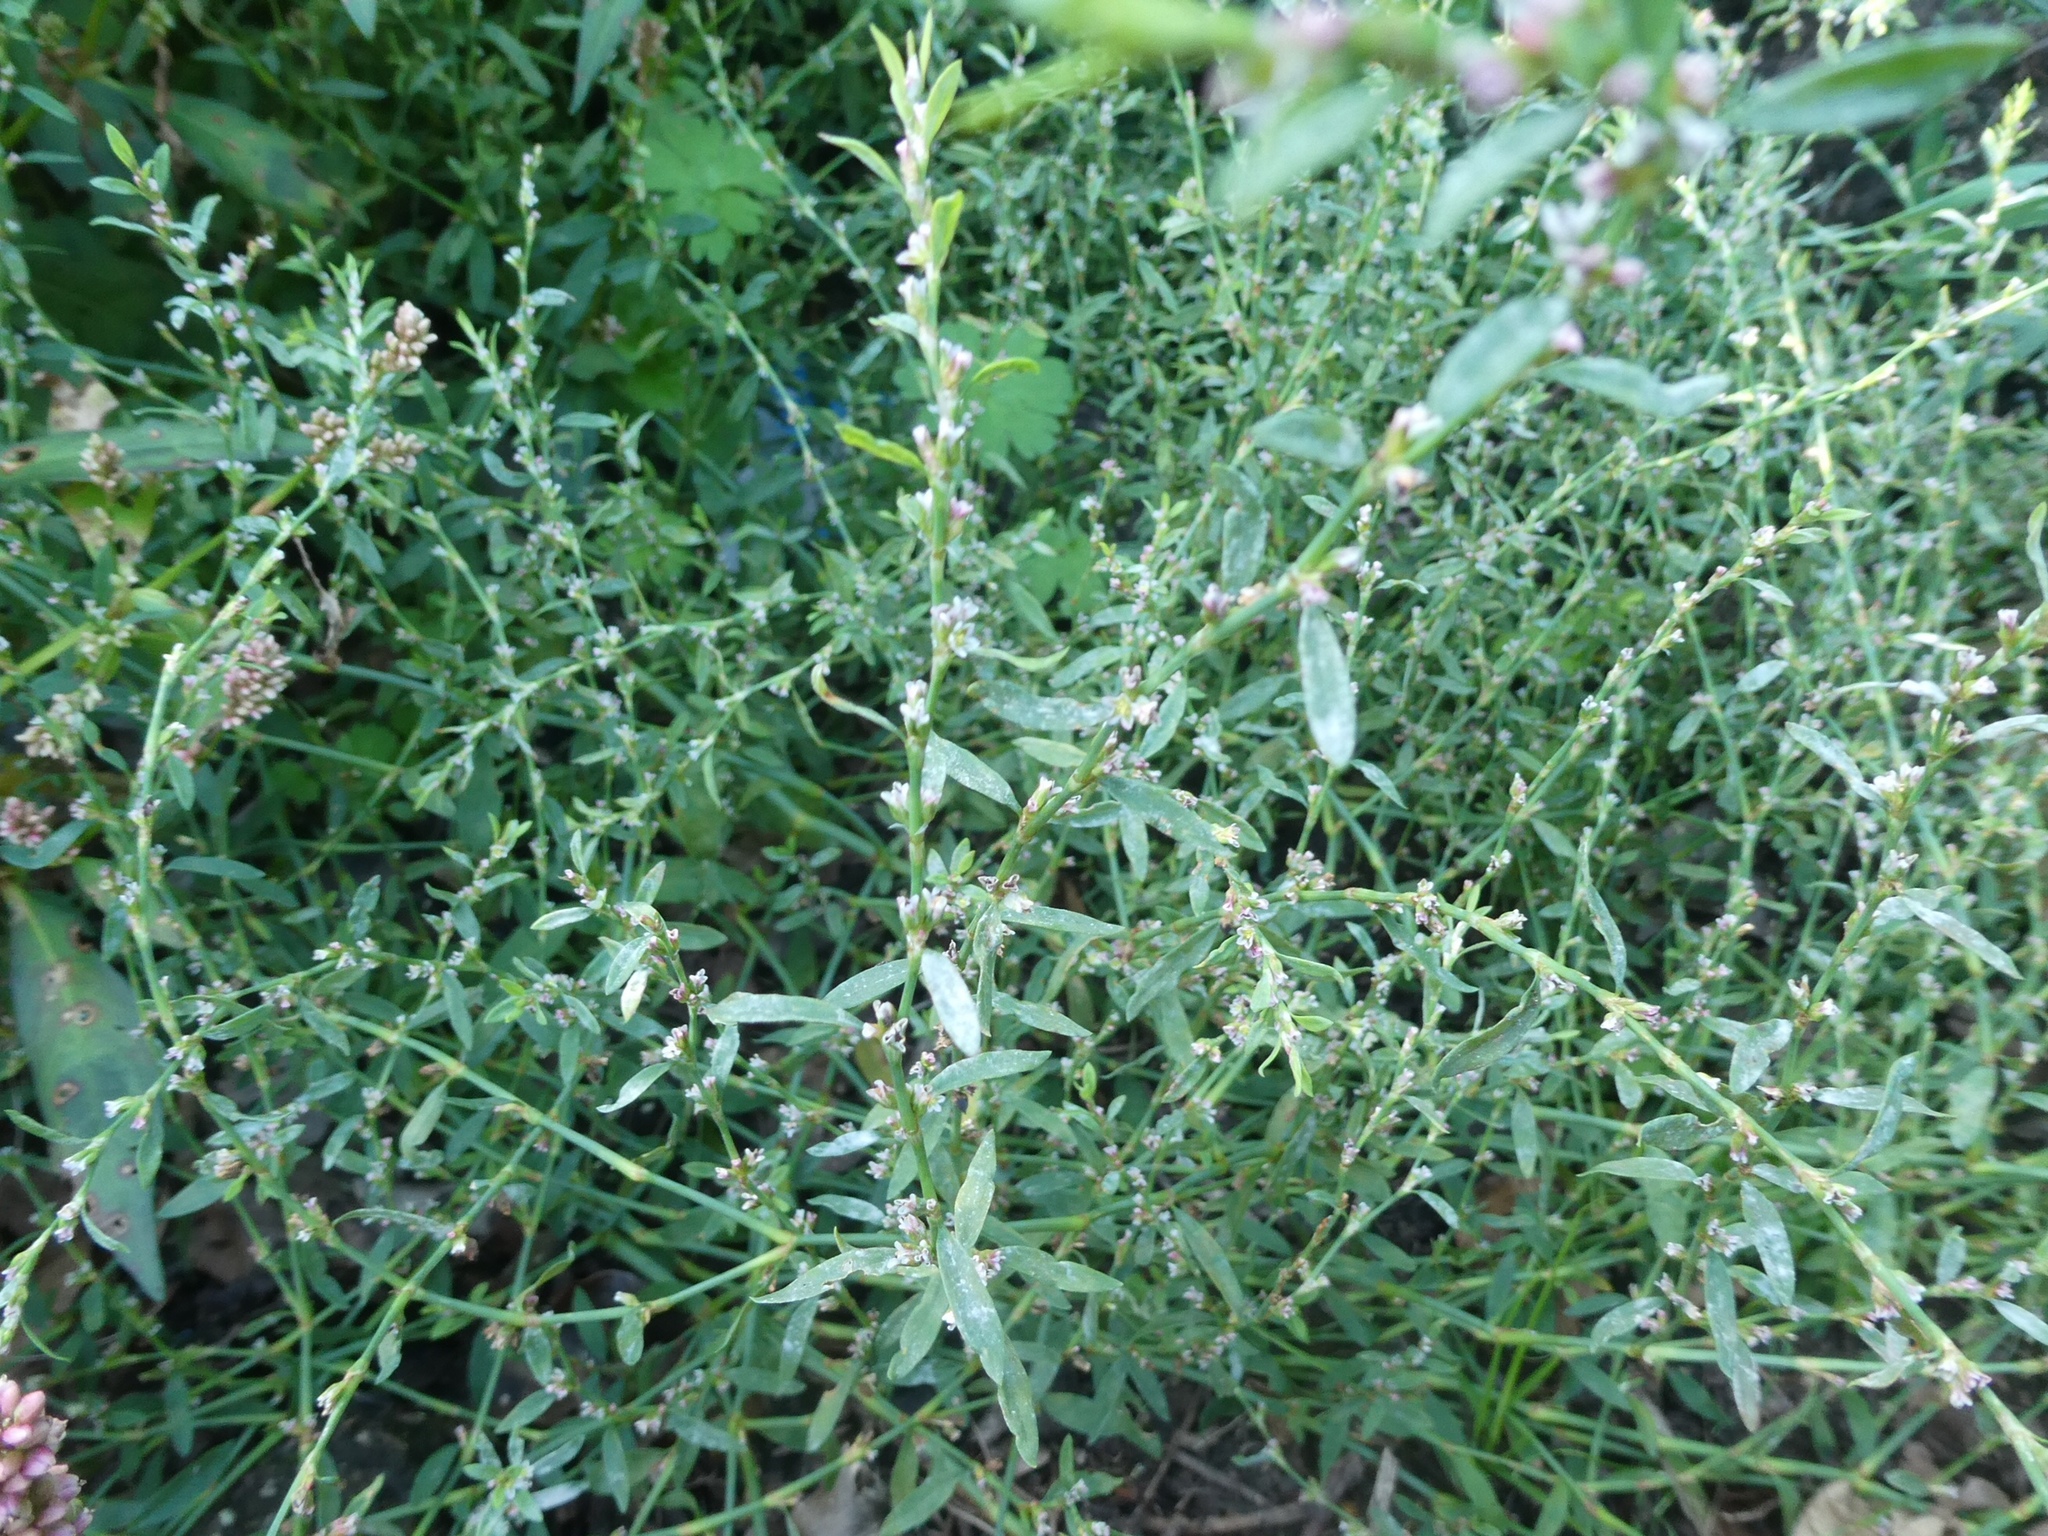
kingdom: Plantae
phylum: Tracheophyta
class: Magnoliopsida
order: Caryophyllales
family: Polygonaceae
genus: Polygonum
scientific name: Polygonum aviculare
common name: Prostrate knotweed
